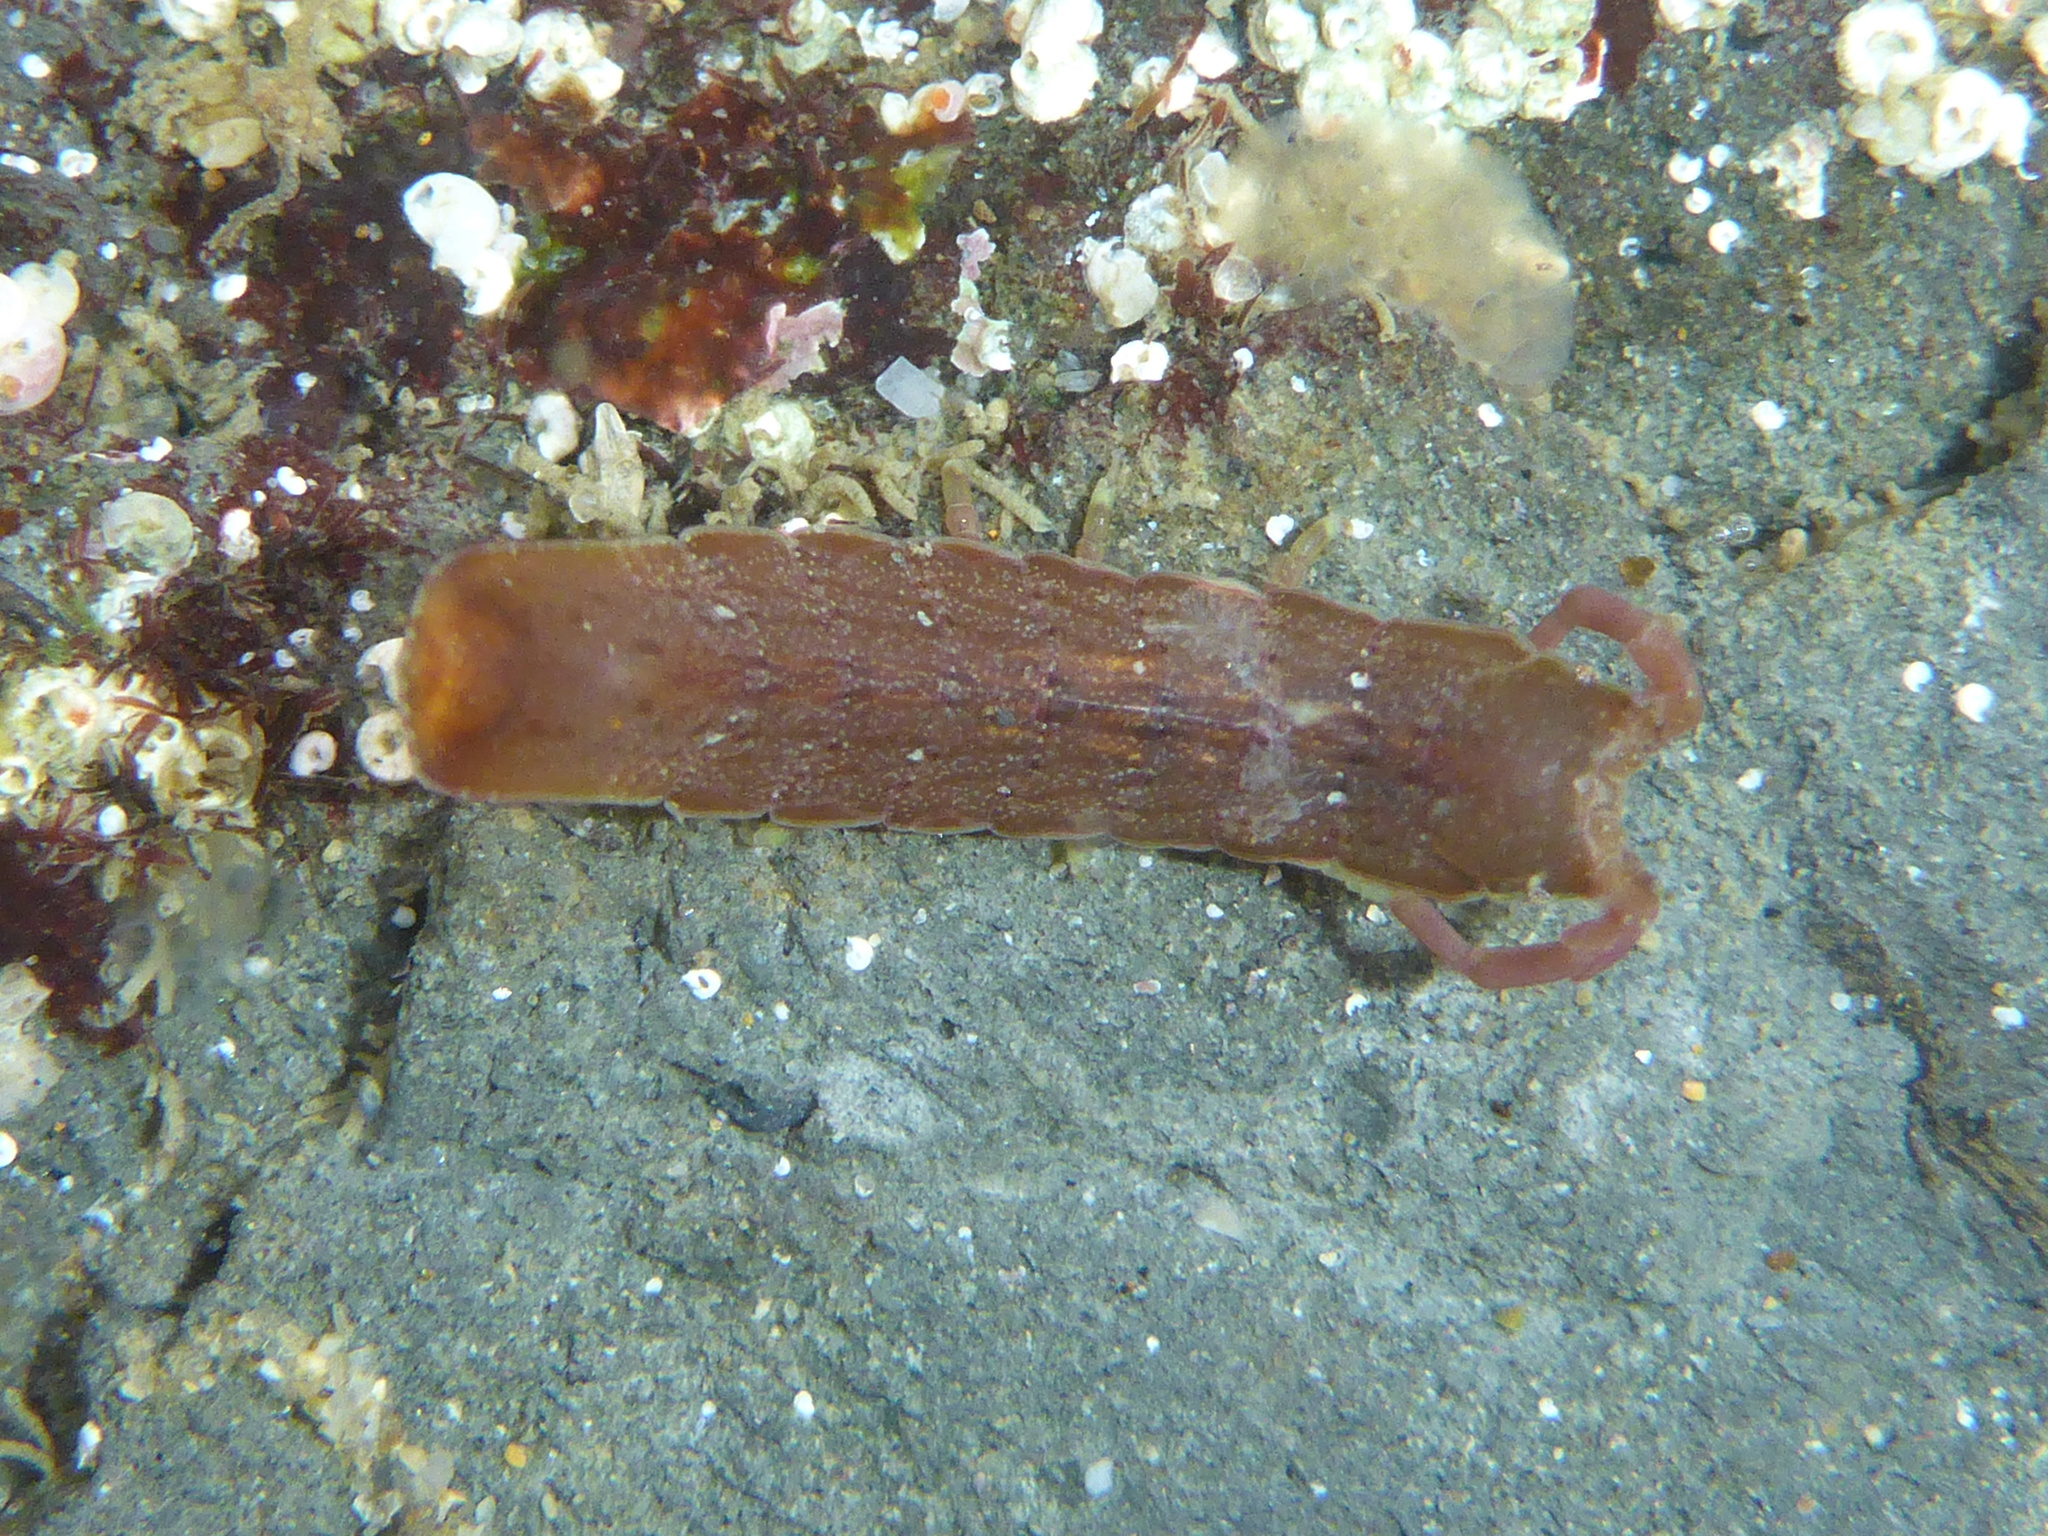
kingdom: Animalia
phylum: Arthropoda
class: Malacostraca
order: Isopoda
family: Idoteidae
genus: Idotea
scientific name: Idotea urotoma
